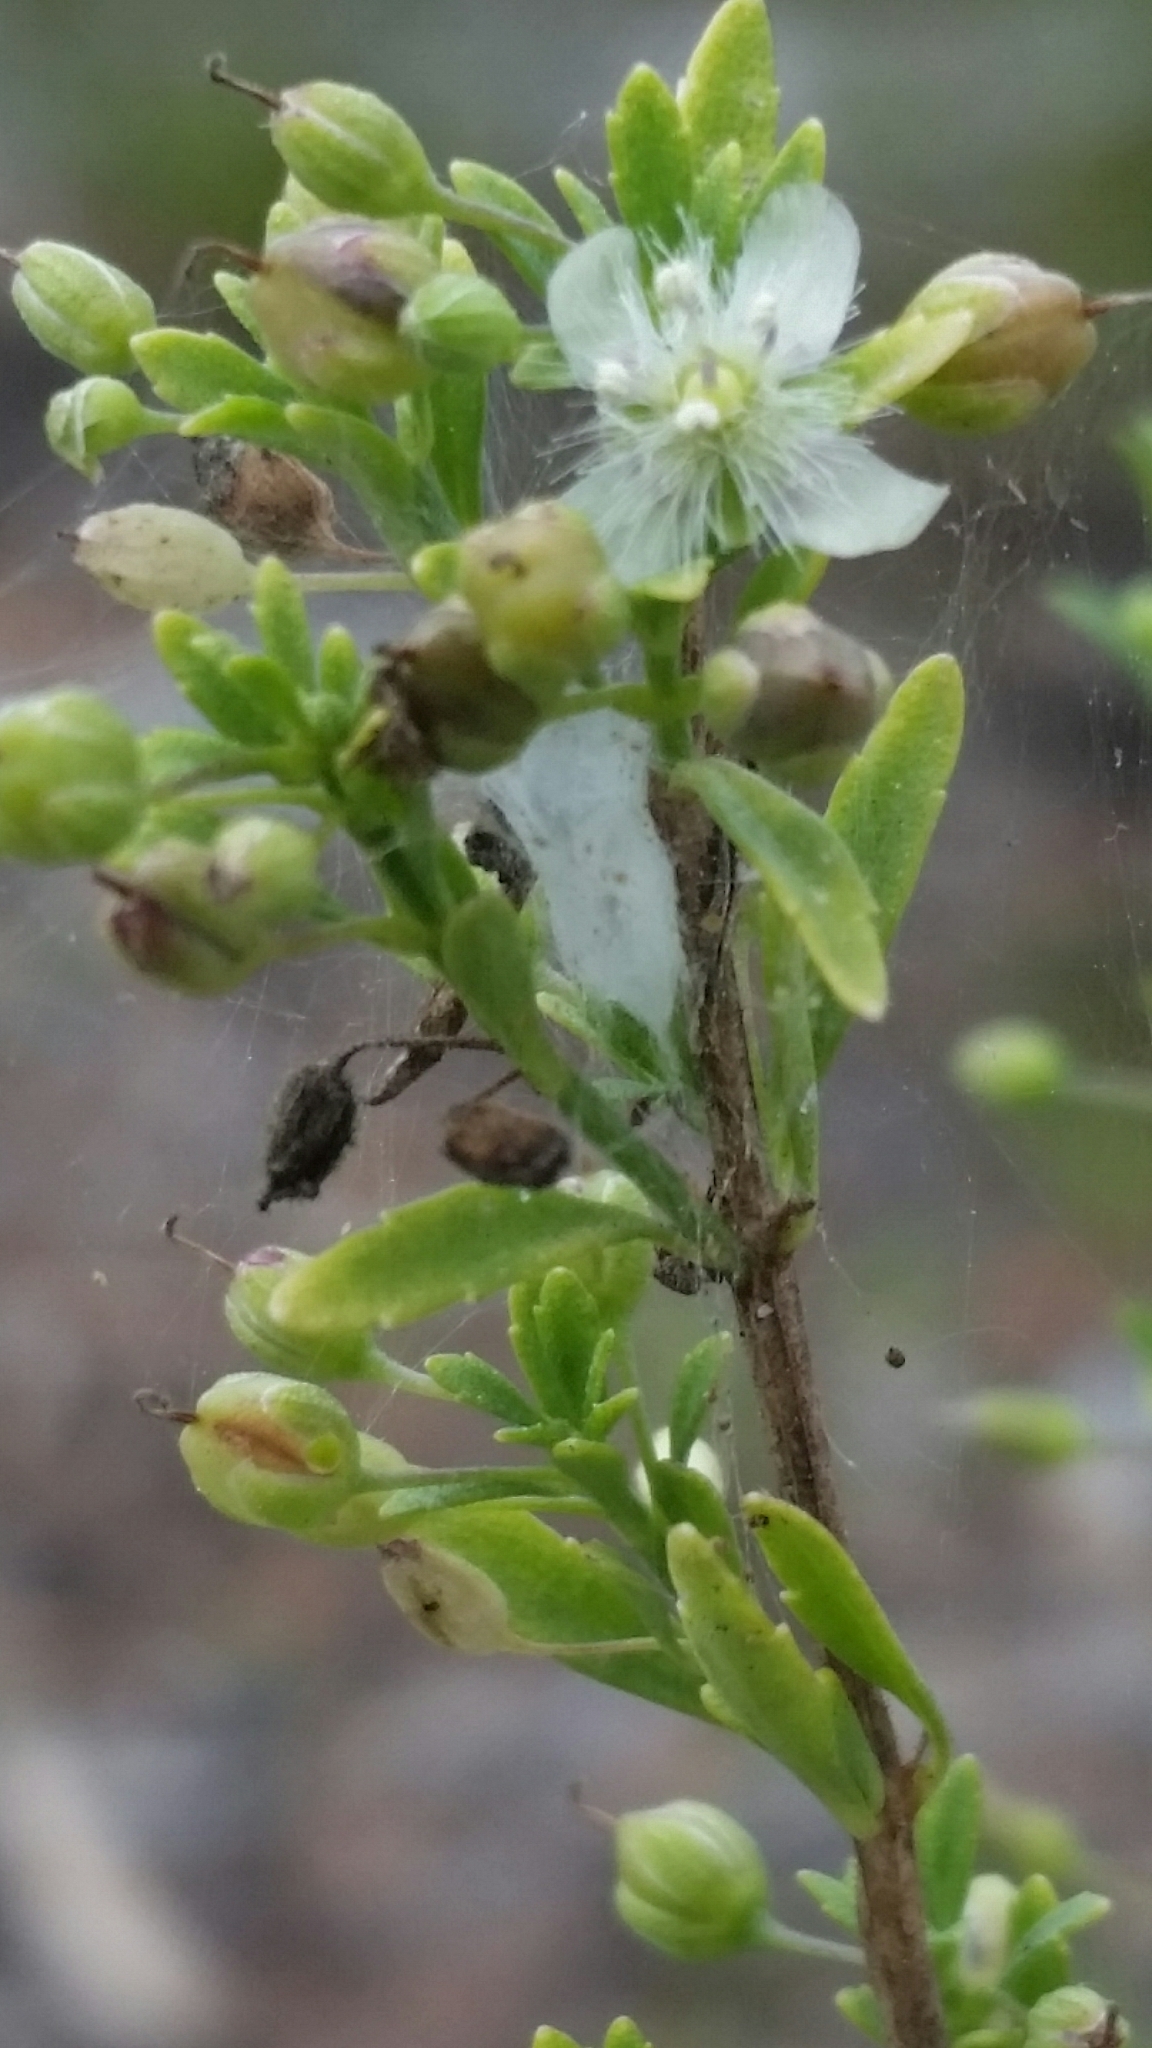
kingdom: Plantae
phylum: Tracheophyta
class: Magnoliopsida
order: Lamiales
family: Plantaginaceae
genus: Scoparia
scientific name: Scoparia dulcis
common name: Scoparia-weed
